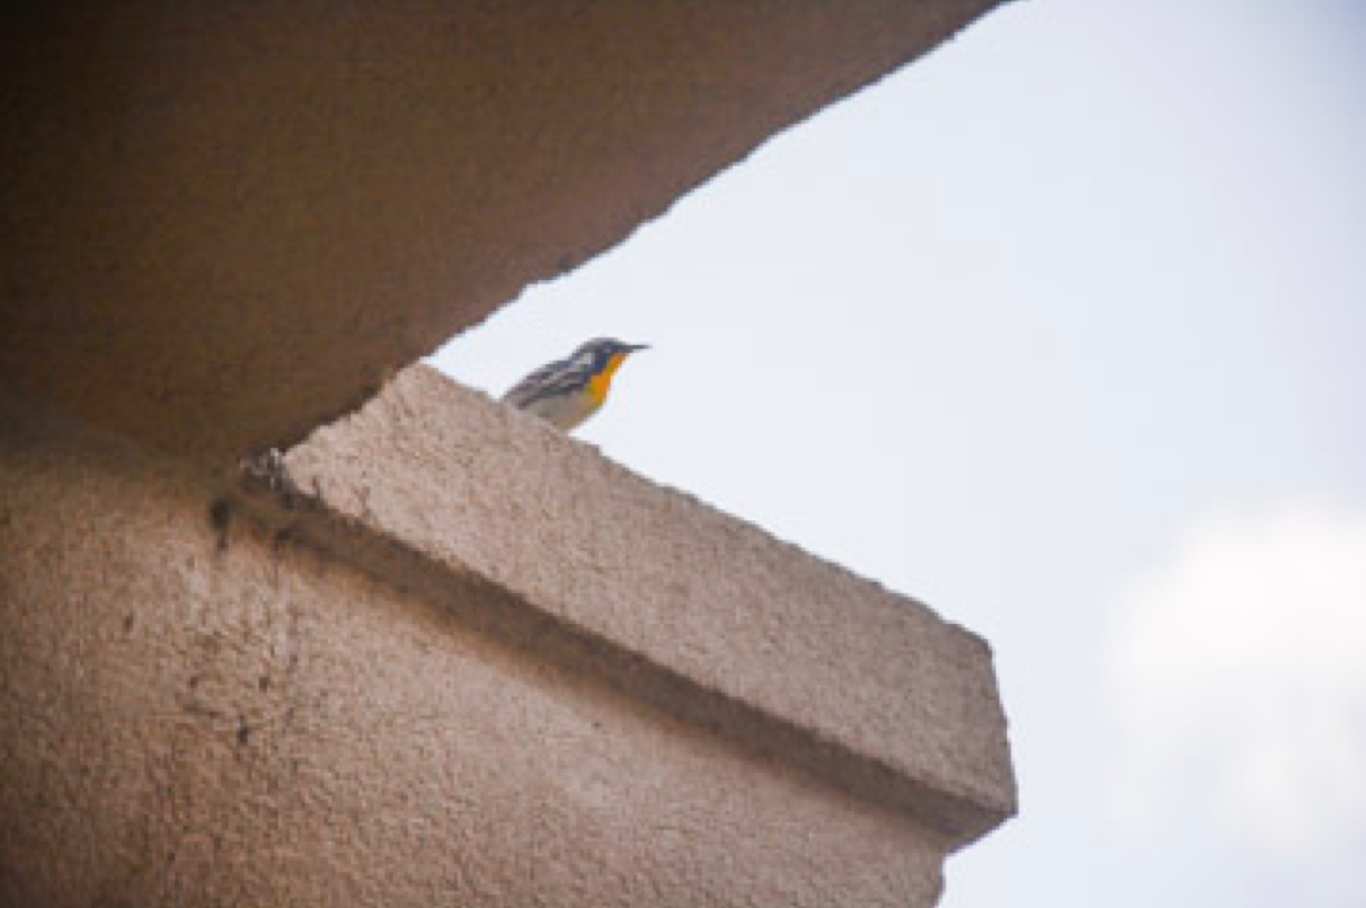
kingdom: Animalia
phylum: Chordata
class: Aves
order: Passeriformes
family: Parulidae
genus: Setophaga
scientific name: Setophaga dominica
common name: Yellow-throated warbler
